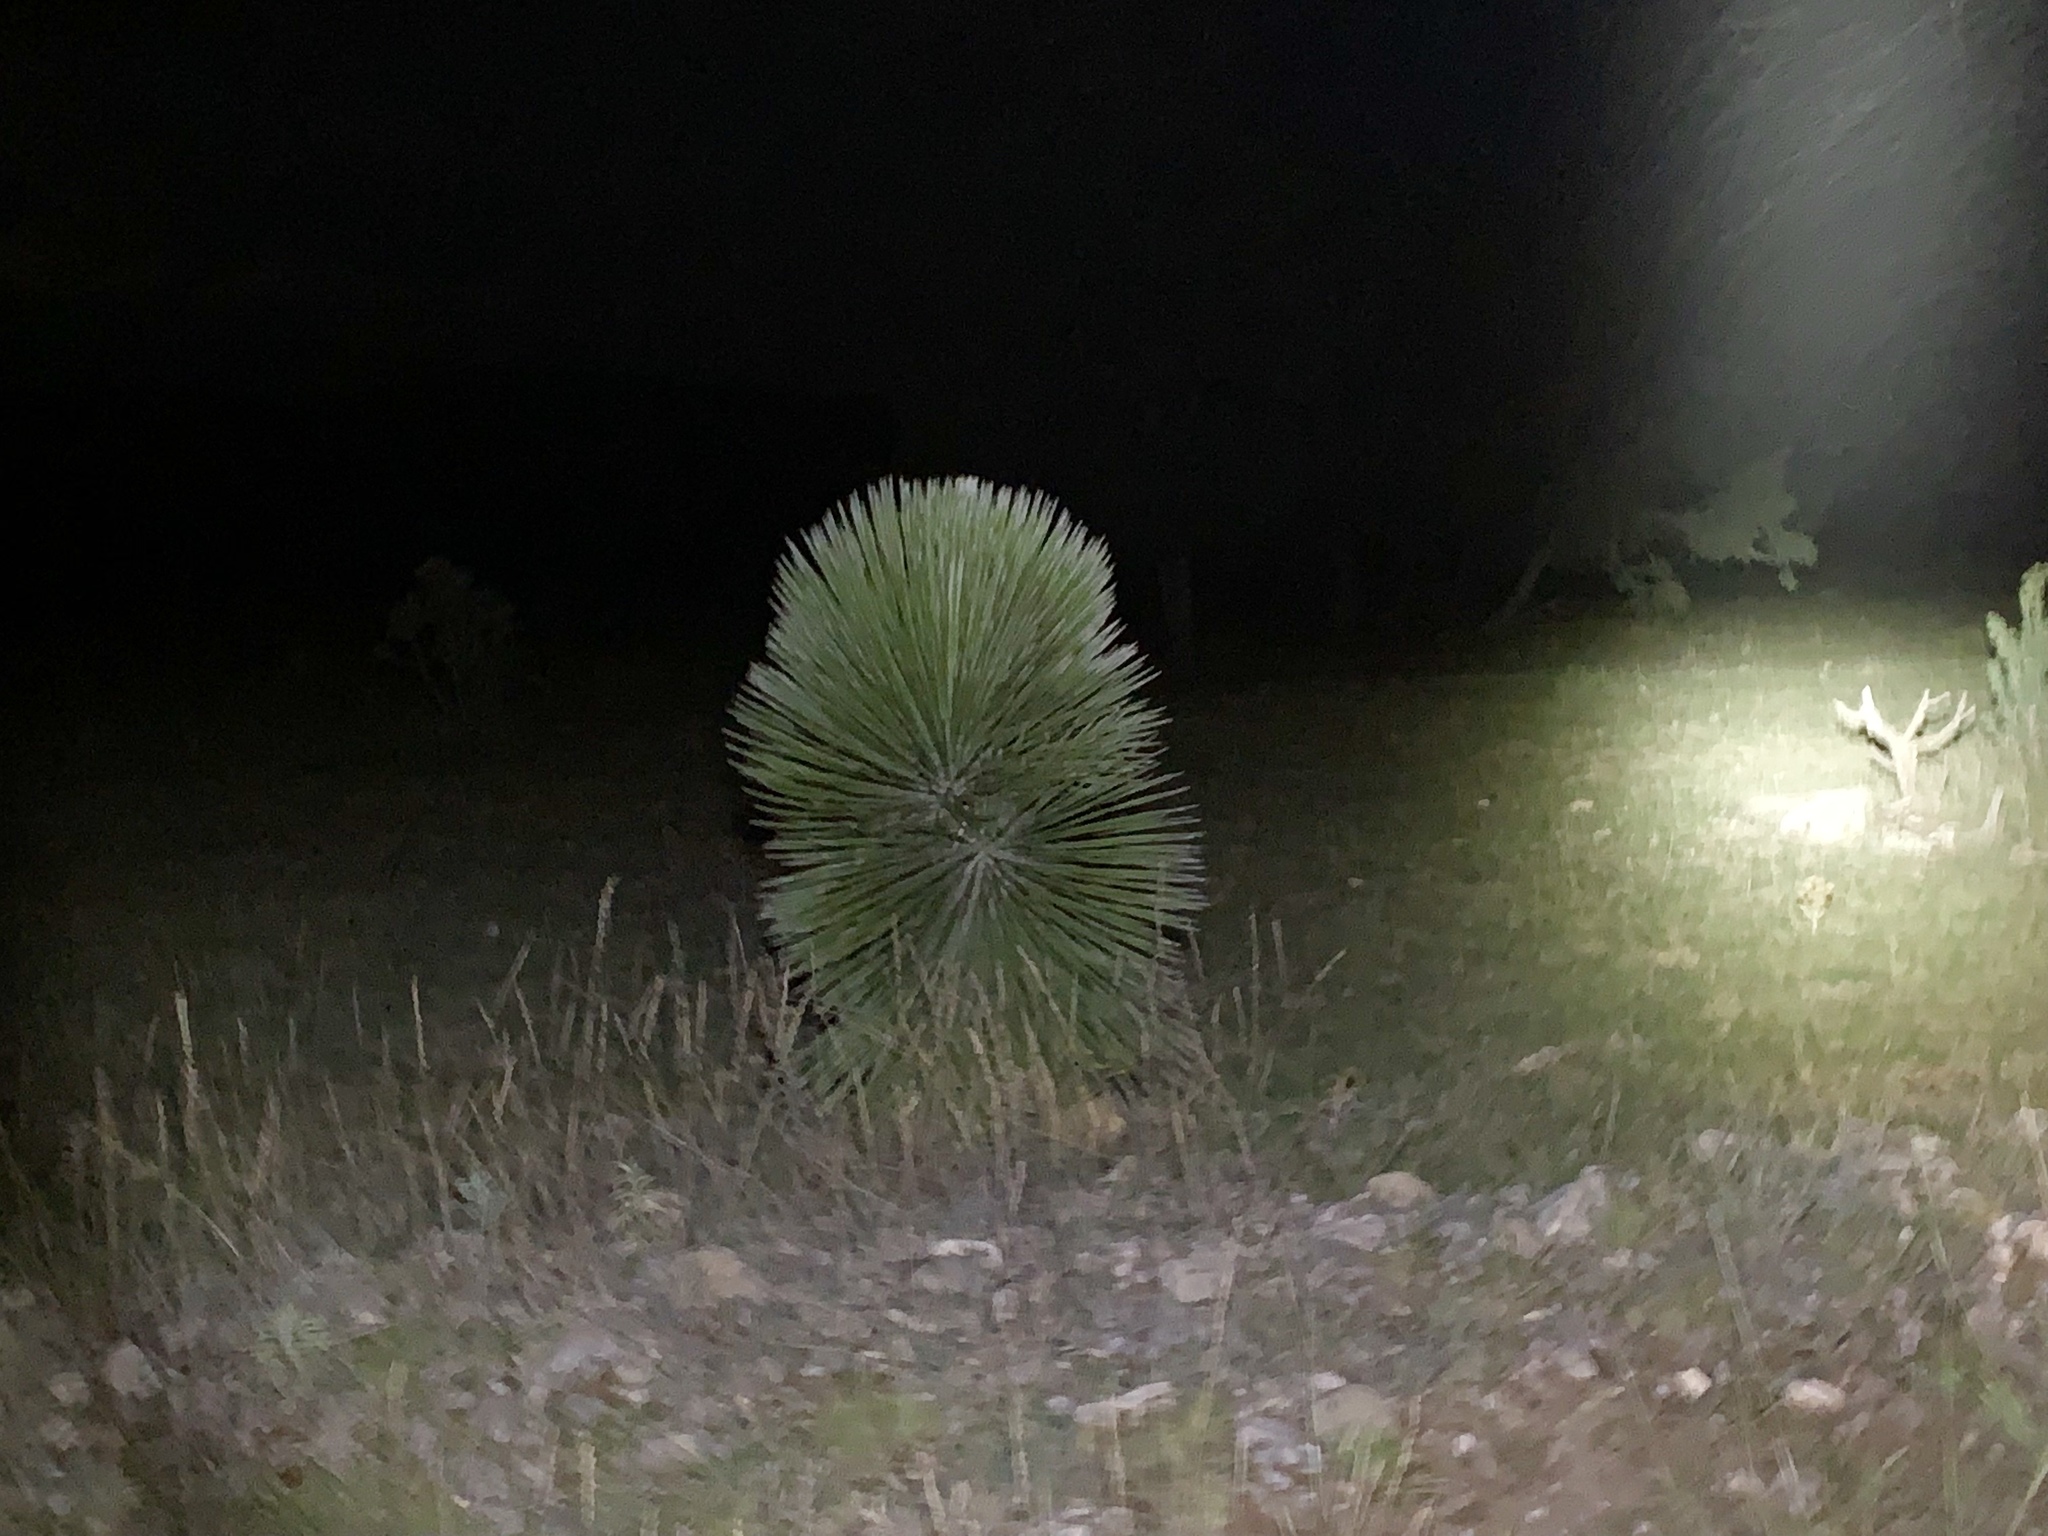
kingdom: Plantae
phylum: Tracheophyta
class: Liliopsida
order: Asparagales
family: Asparagaceae
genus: Yucca
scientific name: Yucca elata
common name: Palmella
